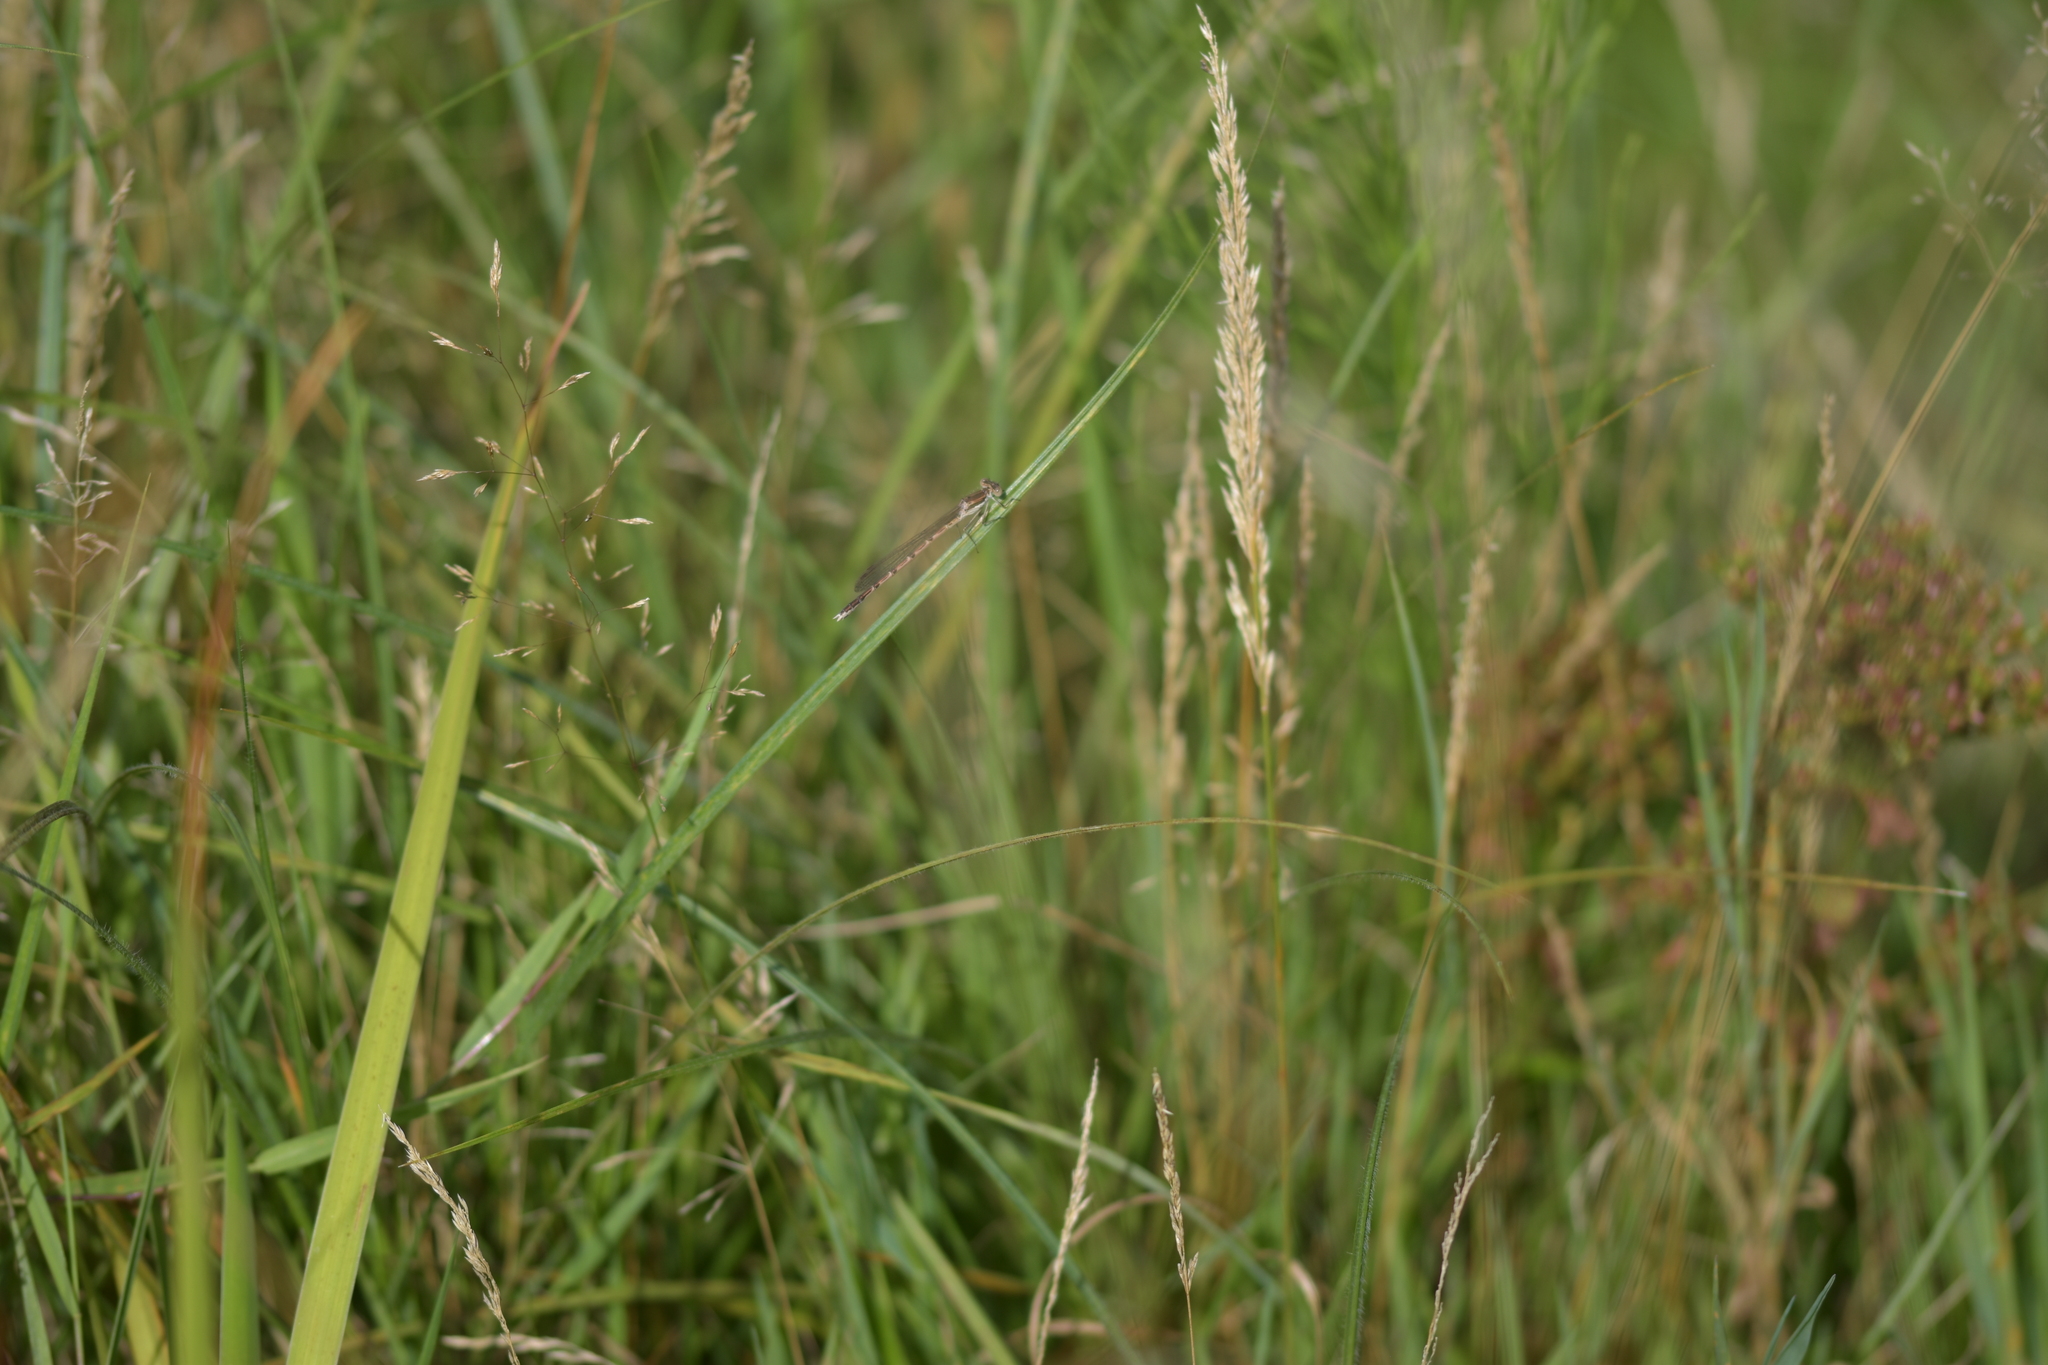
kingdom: Animalia
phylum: Arthropoda
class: Insecta
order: Odonata
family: Lestidae
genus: Sympecma
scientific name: Sympecma fusca
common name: Common winter damsel
